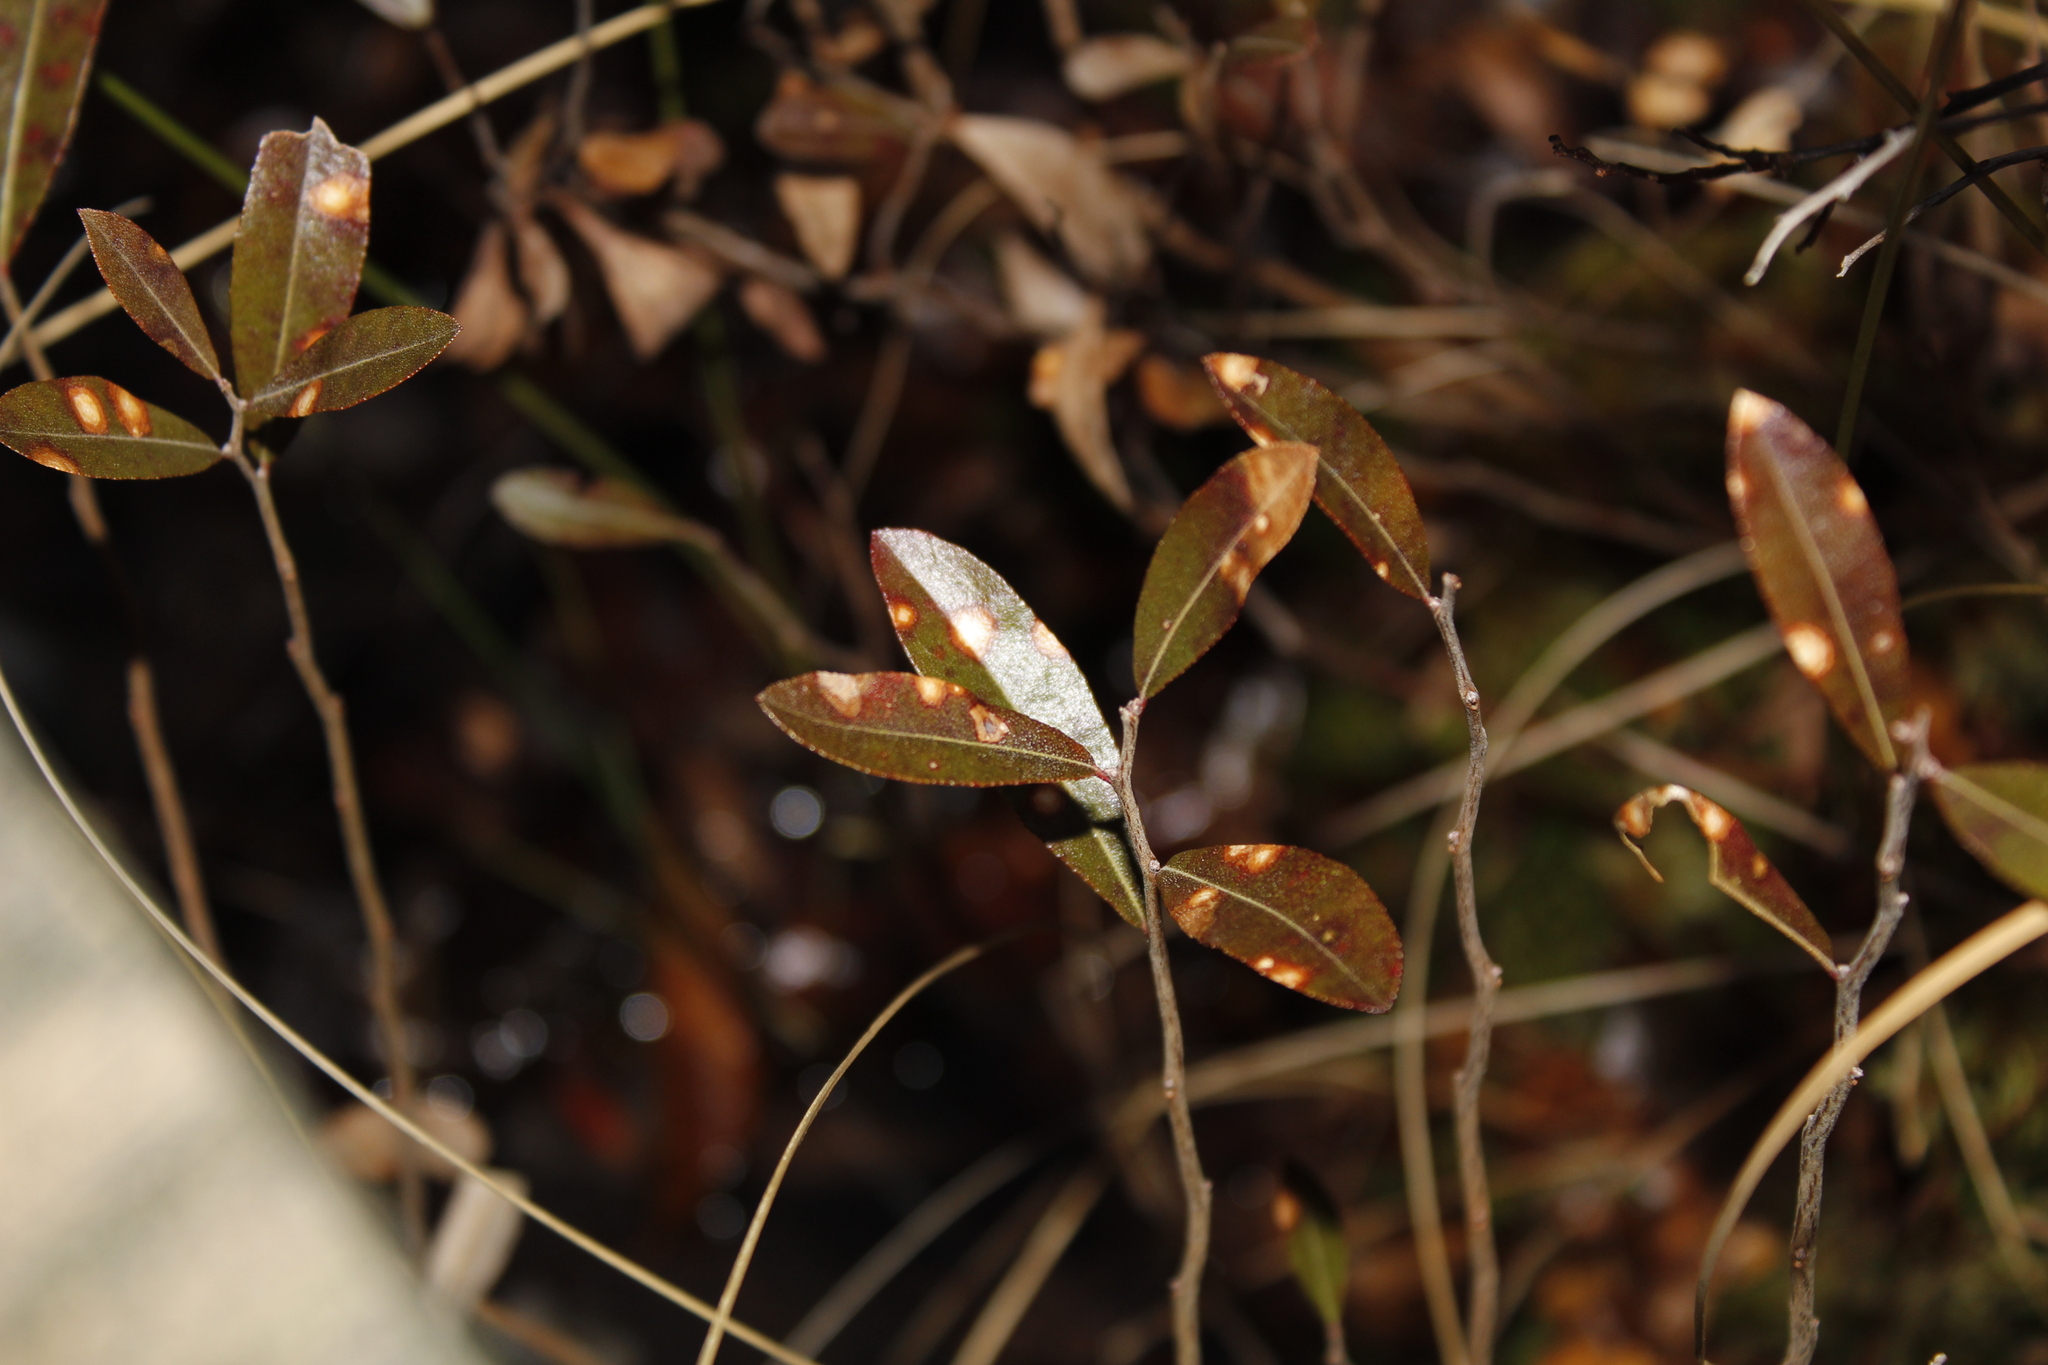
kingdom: Plantae
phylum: Tracheophyta
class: Magnoliopsida
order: Ericales
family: Ericaceae
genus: Chamaedaphne
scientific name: Chamaedaphne calyculata
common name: Leatherleaf
